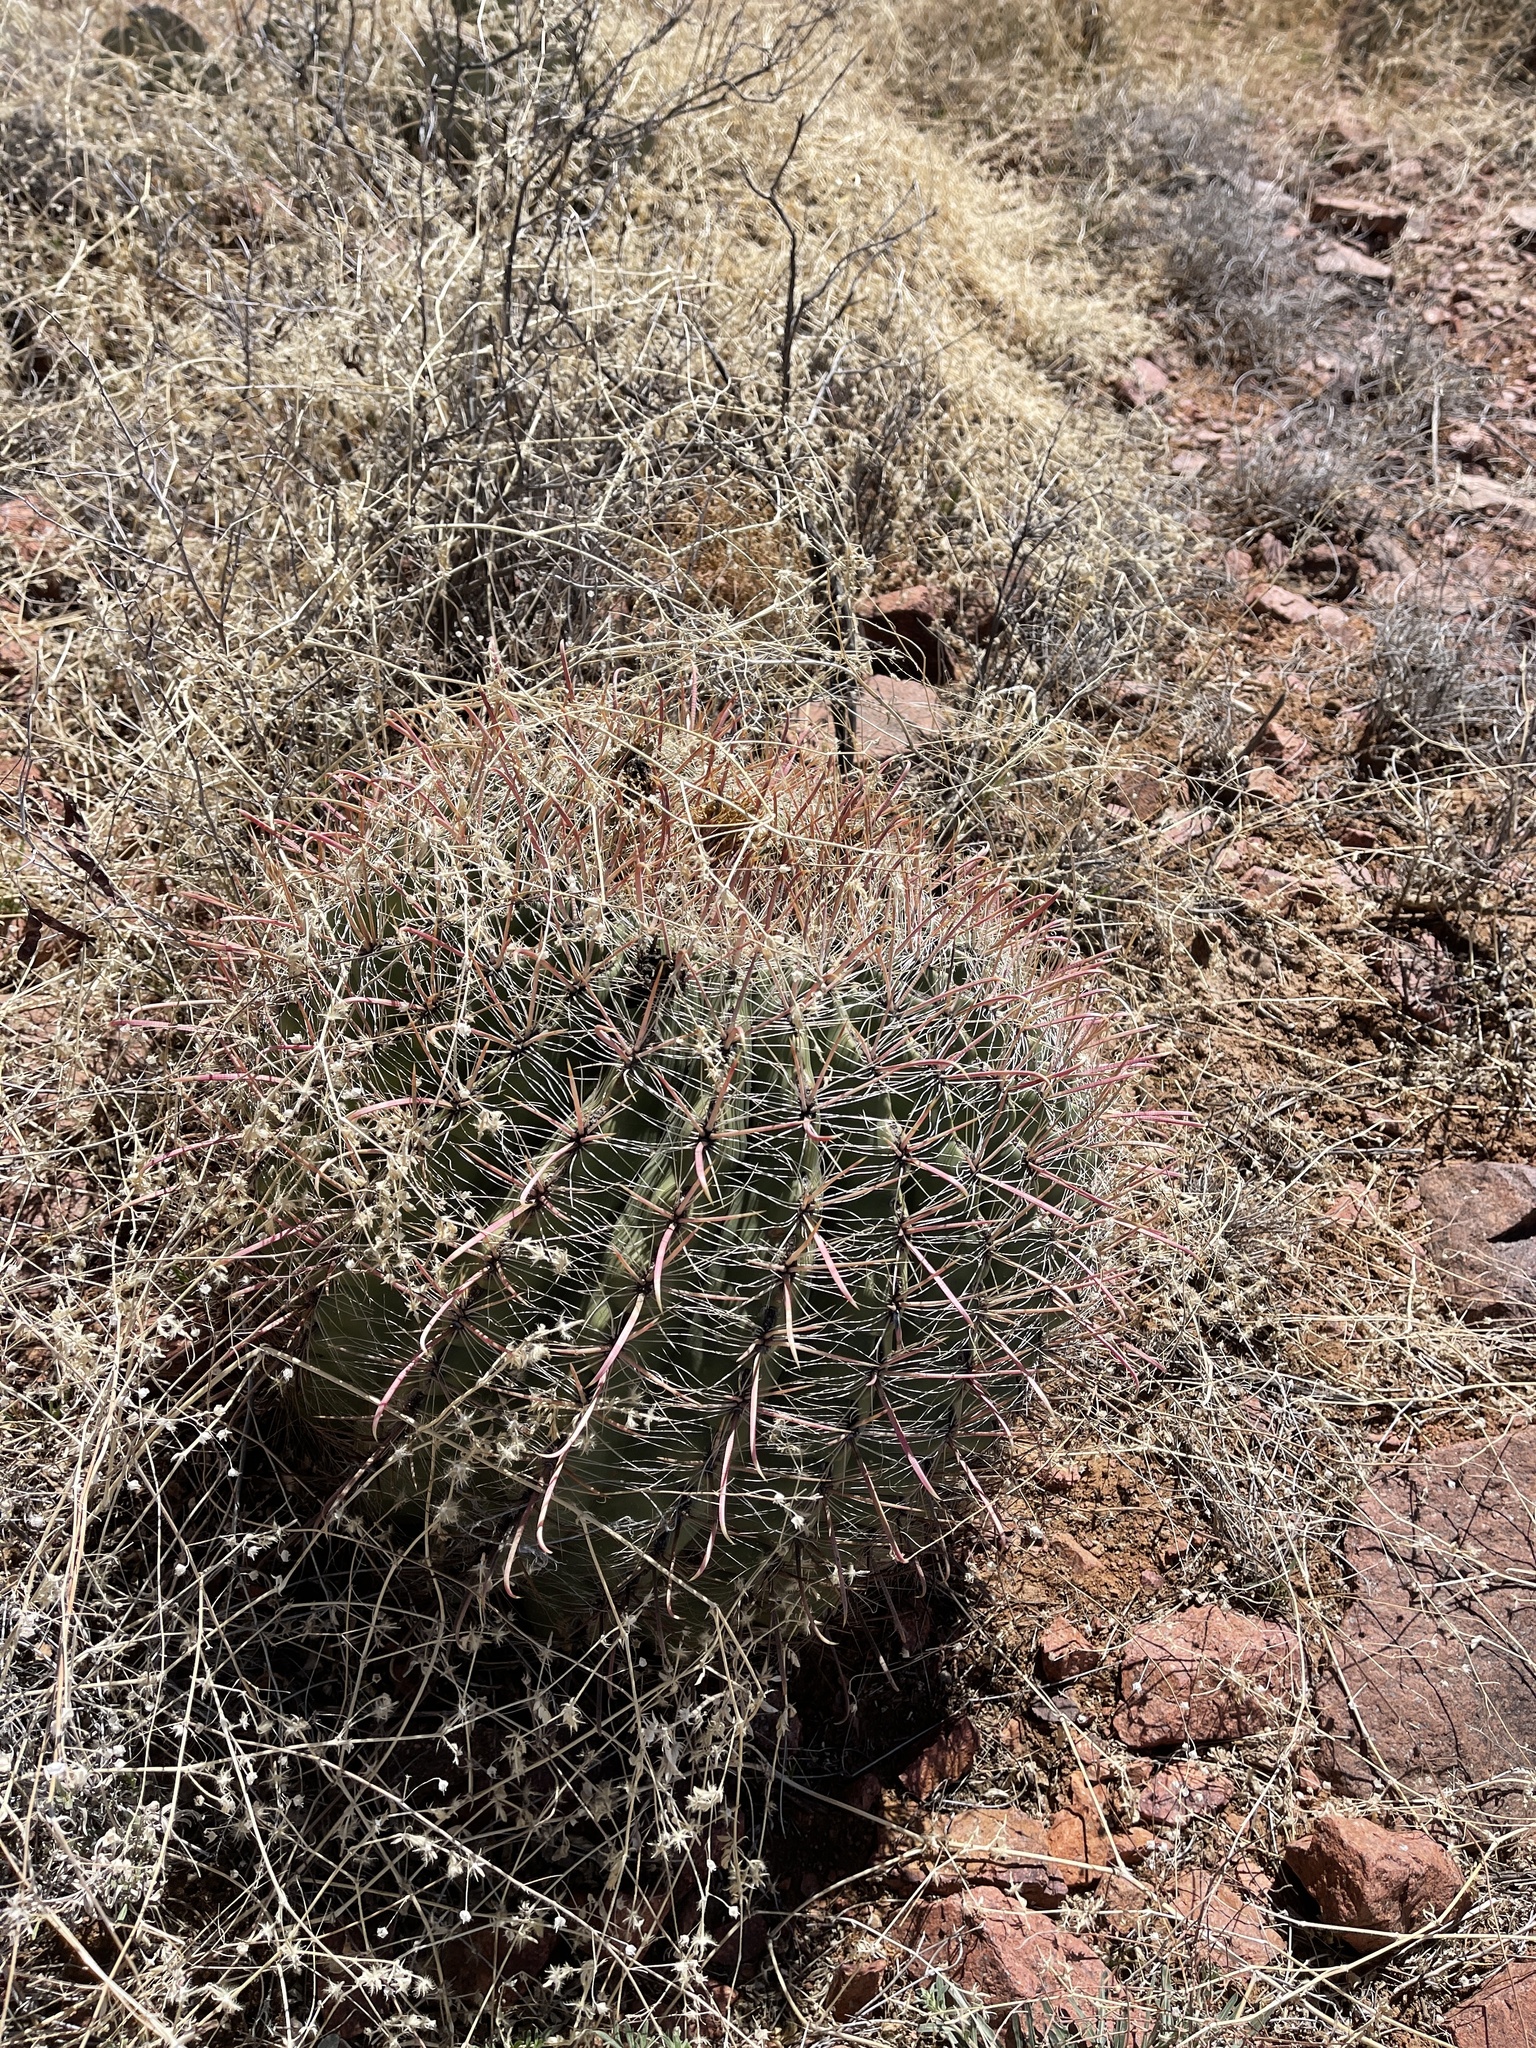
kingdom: Plantae
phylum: Tracheophyta
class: Magnoliopsida
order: Caryophyllales
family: Cactaceae
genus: Ferocactus
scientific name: Ferocactus wislizeni
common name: Candy barrel cactus
